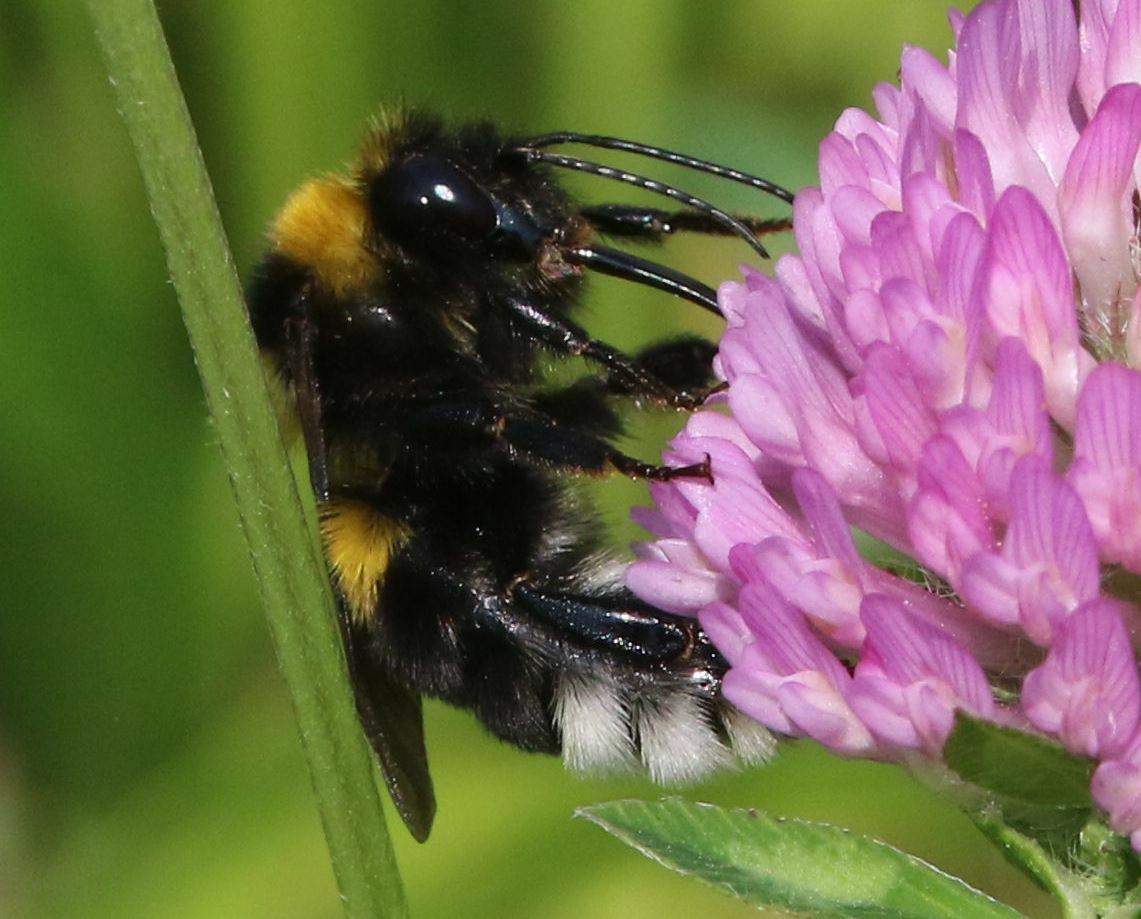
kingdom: Animalia
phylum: Arthropoda
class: Insecta
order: Hymenoptera
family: Apidae
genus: Bombus
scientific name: Bombus argillaceus
